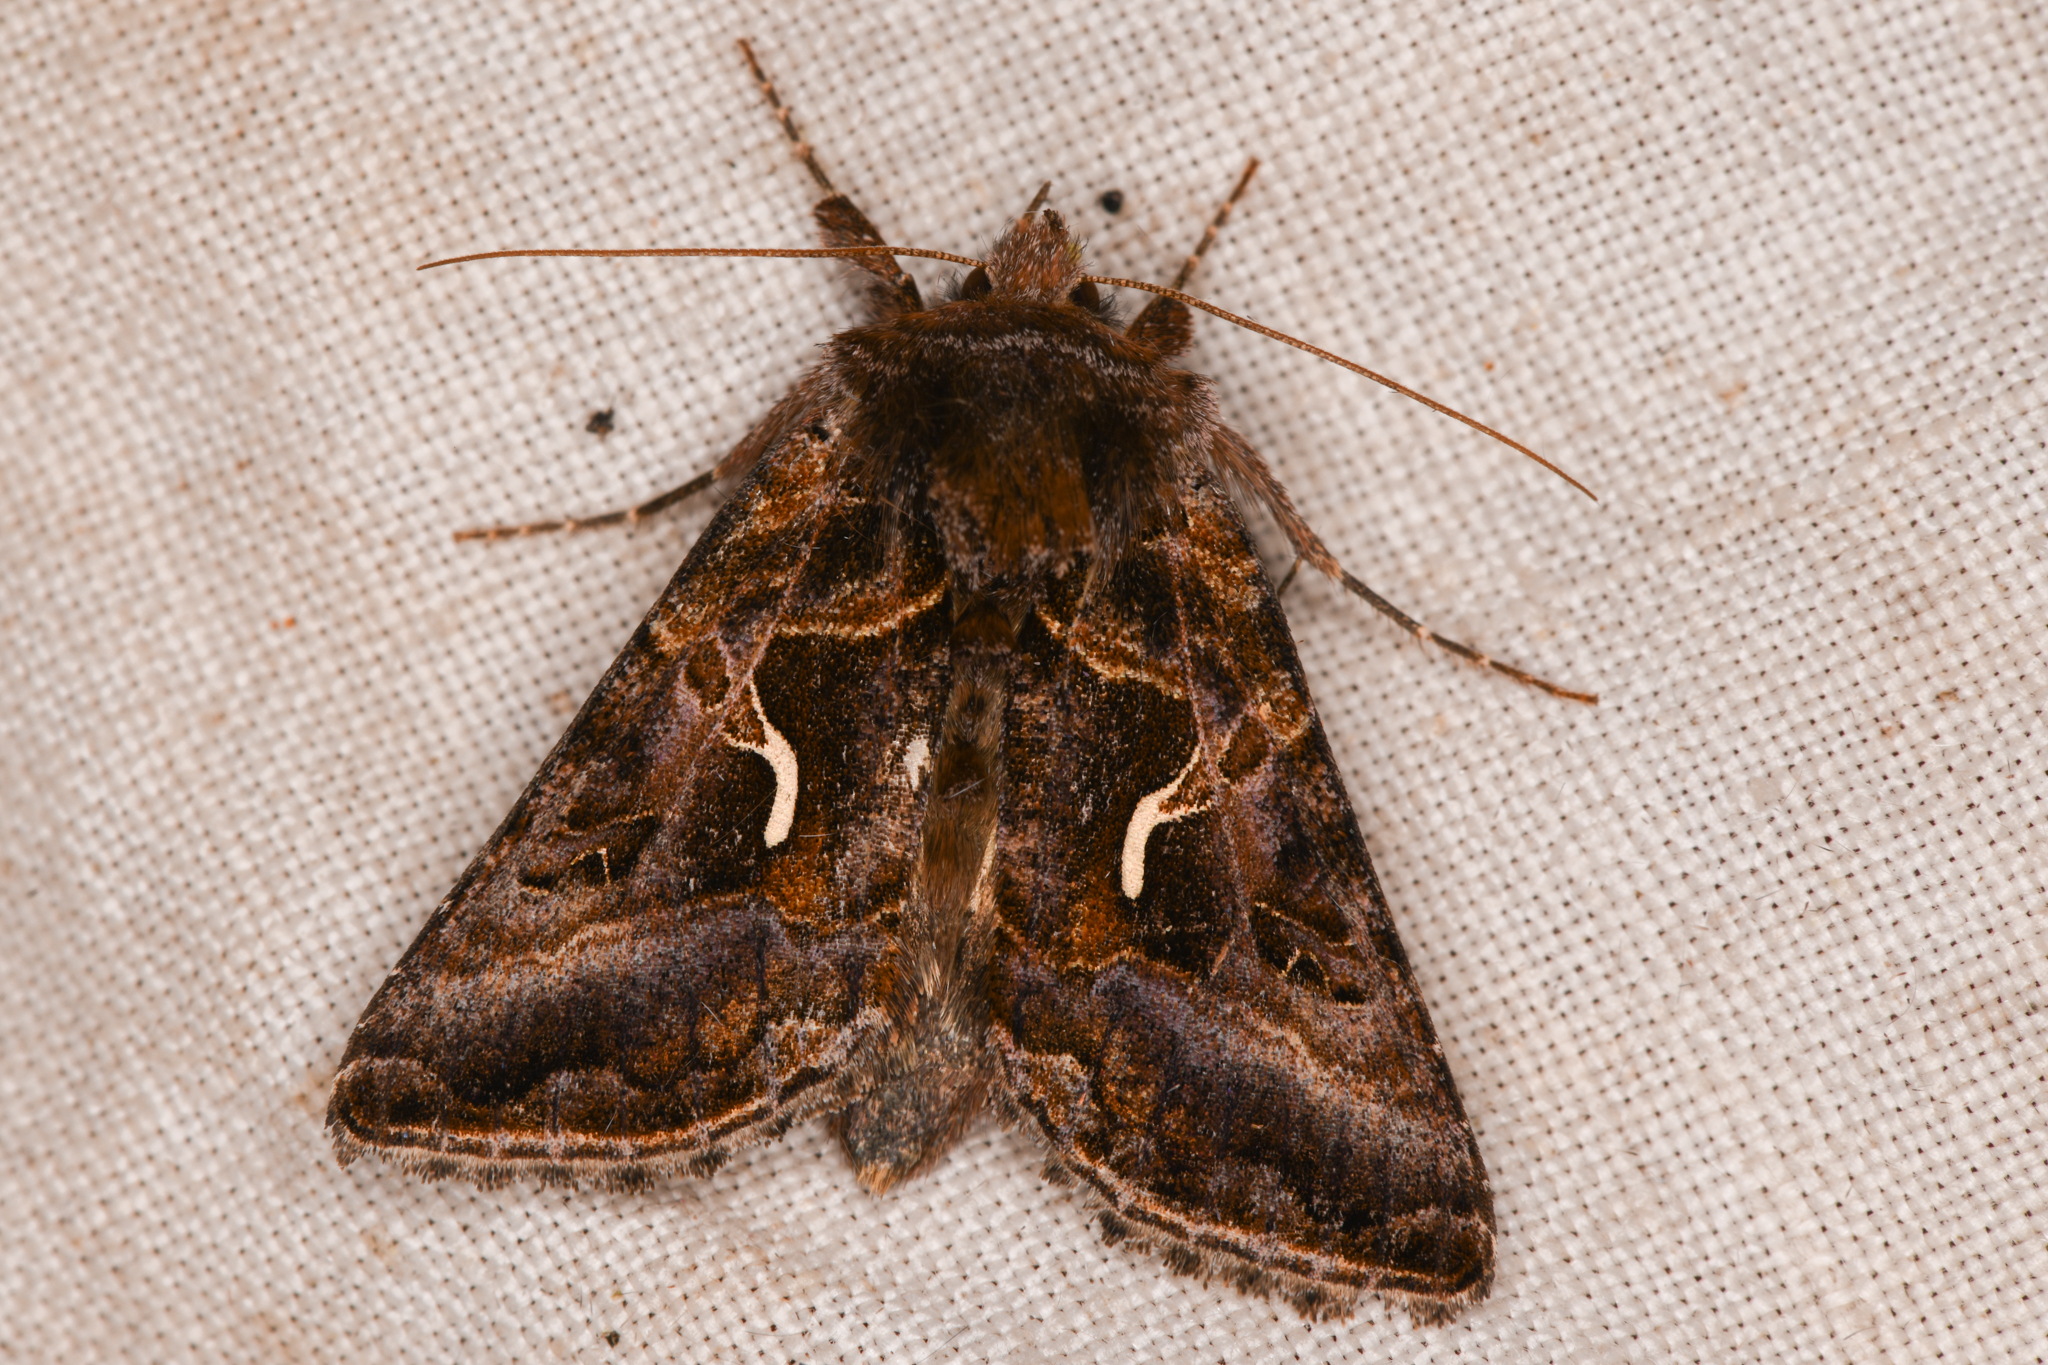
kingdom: Animalia
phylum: Arthropoda
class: Insecta
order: Lepidoptera
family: Noctuidae
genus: Autographa
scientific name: Autographa sansoni
